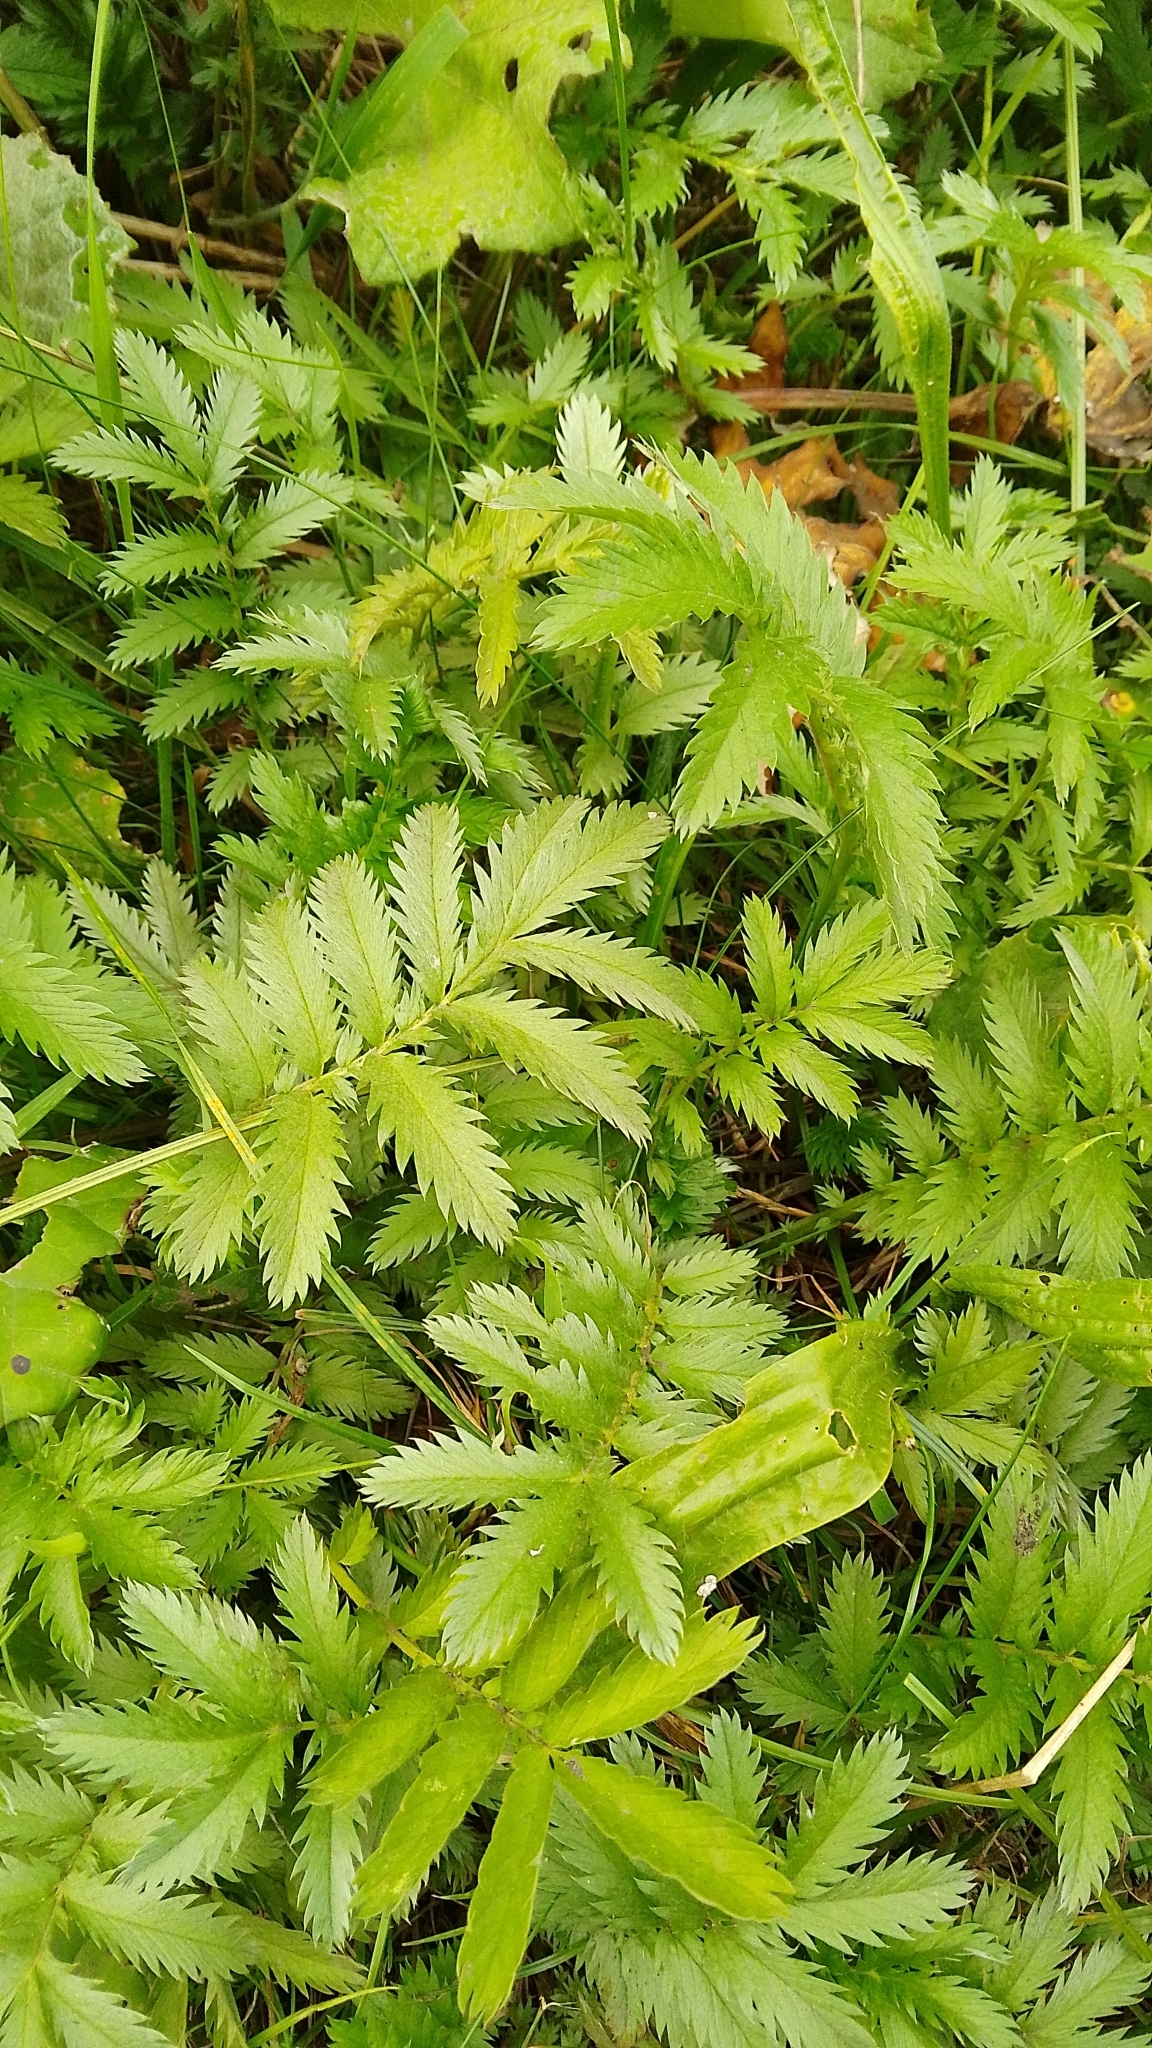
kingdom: Plantae
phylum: Tracheophyta
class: Magnoliopsida
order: Rosales
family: Rosaceae
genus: Argentina
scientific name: Argentina anserina
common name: Common silverweed
